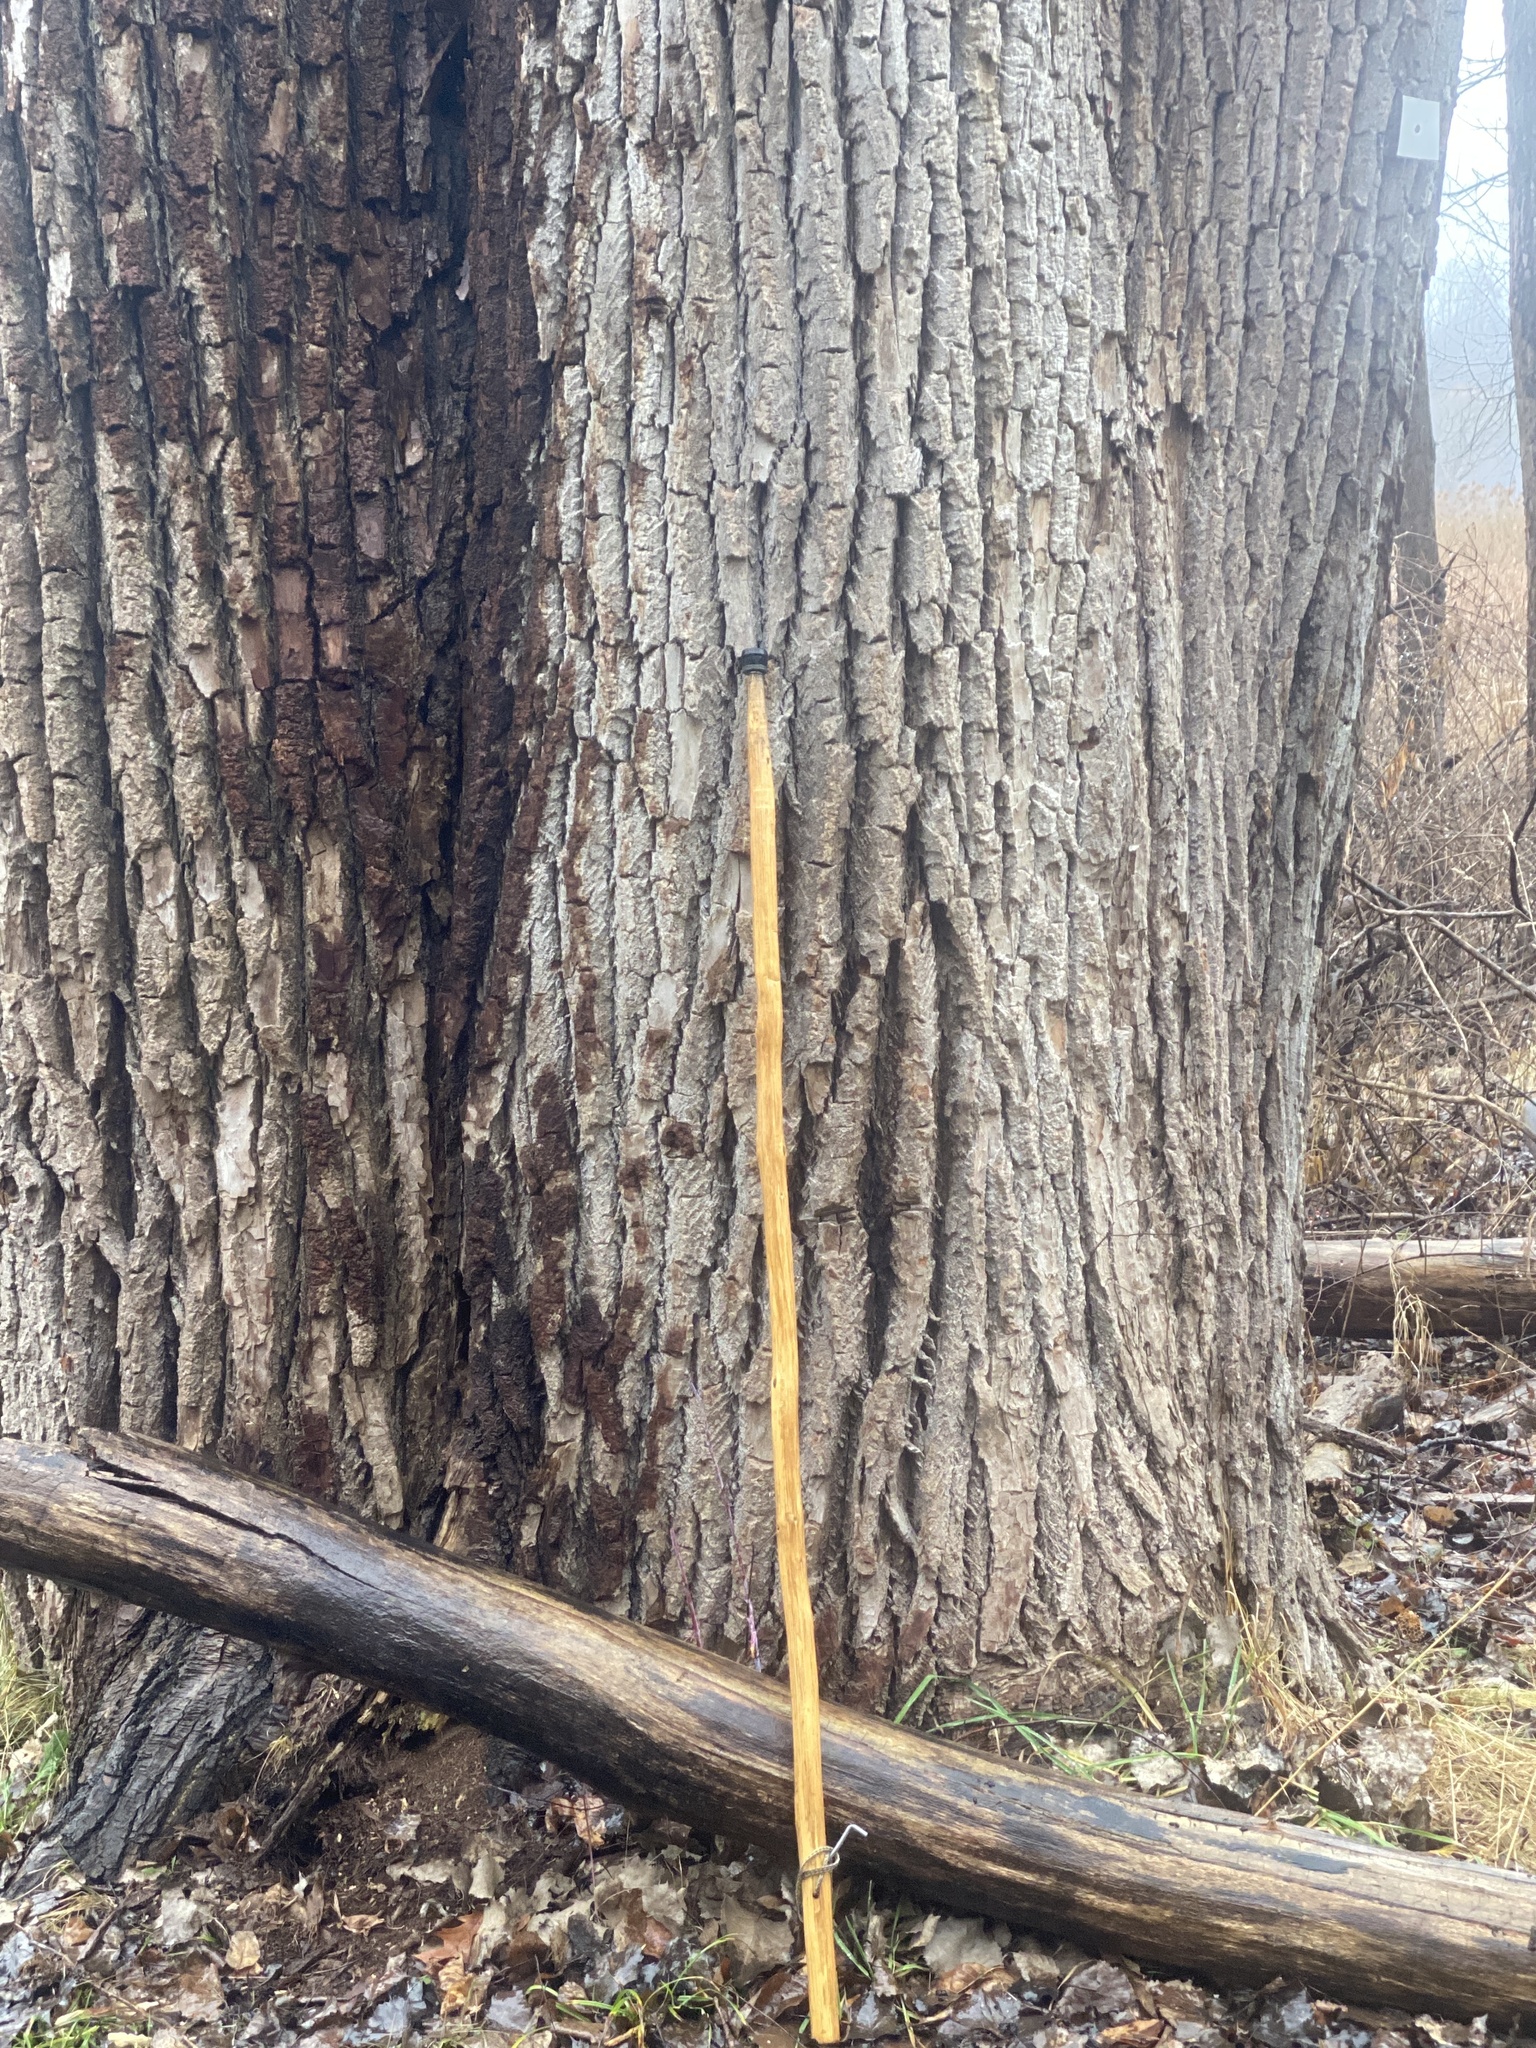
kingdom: Plantae
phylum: Tracheophyta
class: Magnoliopsida
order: Malpighiales
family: Salicaceae
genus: Populus
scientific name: Populus deltoides
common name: Eastern cottonwood
